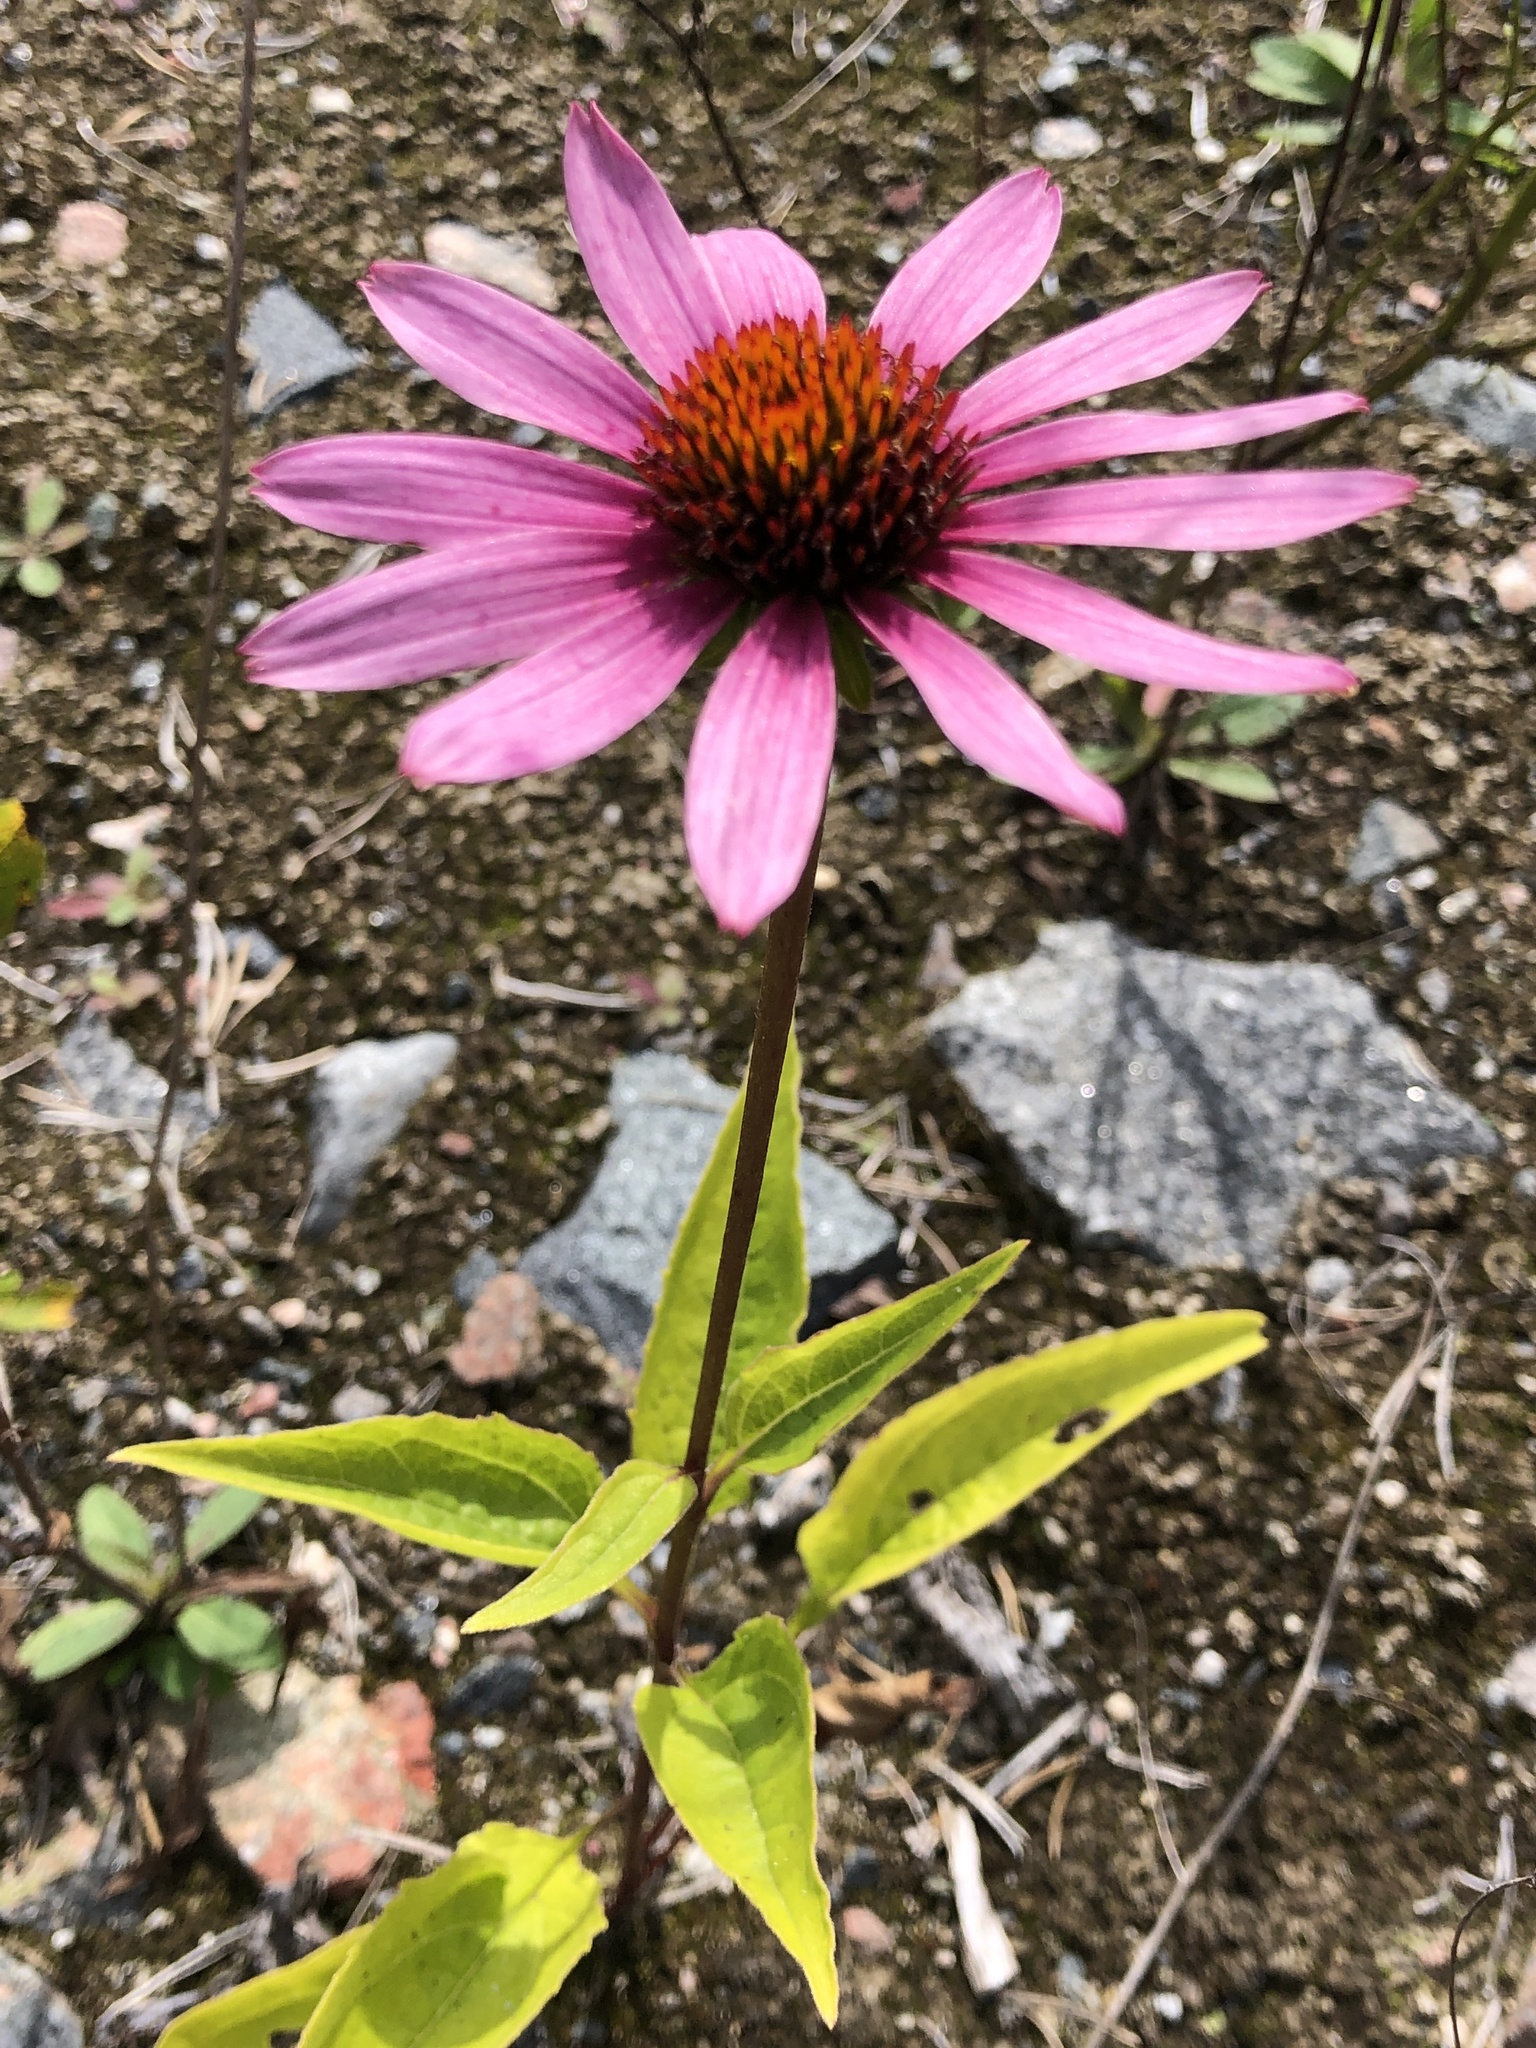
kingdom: Plantae
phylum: Tracheophyta
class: Magnoliopsida
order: Asterales
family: Asteraceae
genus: Echinacea
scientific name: Echinacea purpurea
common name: Broad-leaved purple coneflower
